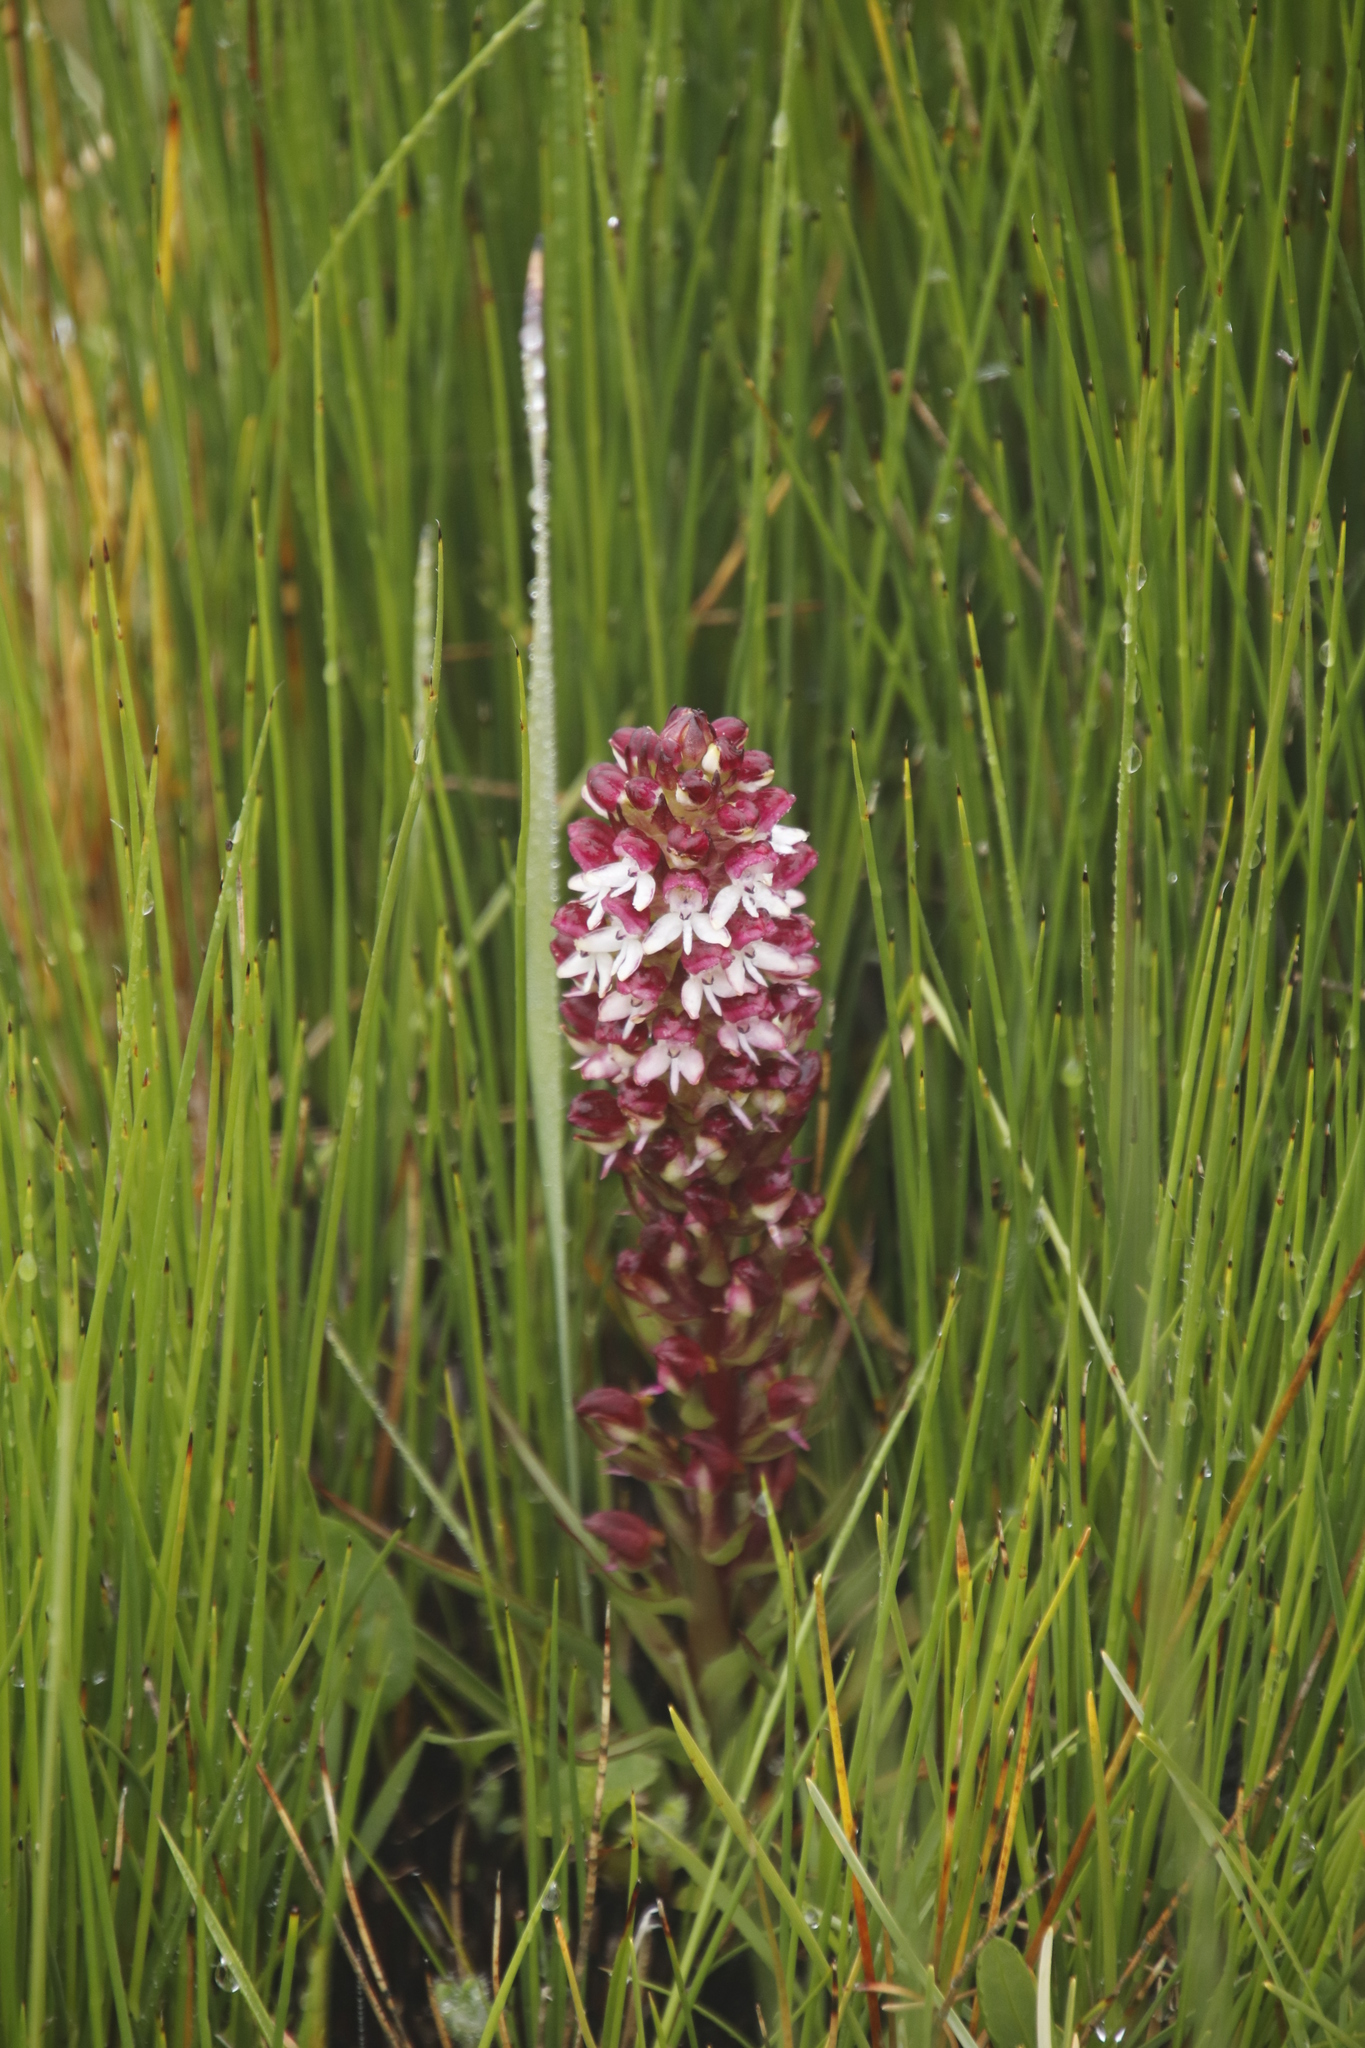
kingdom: Plantae
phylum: Tracheophyta
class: Liliopsida
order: Asparagales
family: Orchidaceae
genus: Disa
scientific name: Disa albomagentea
